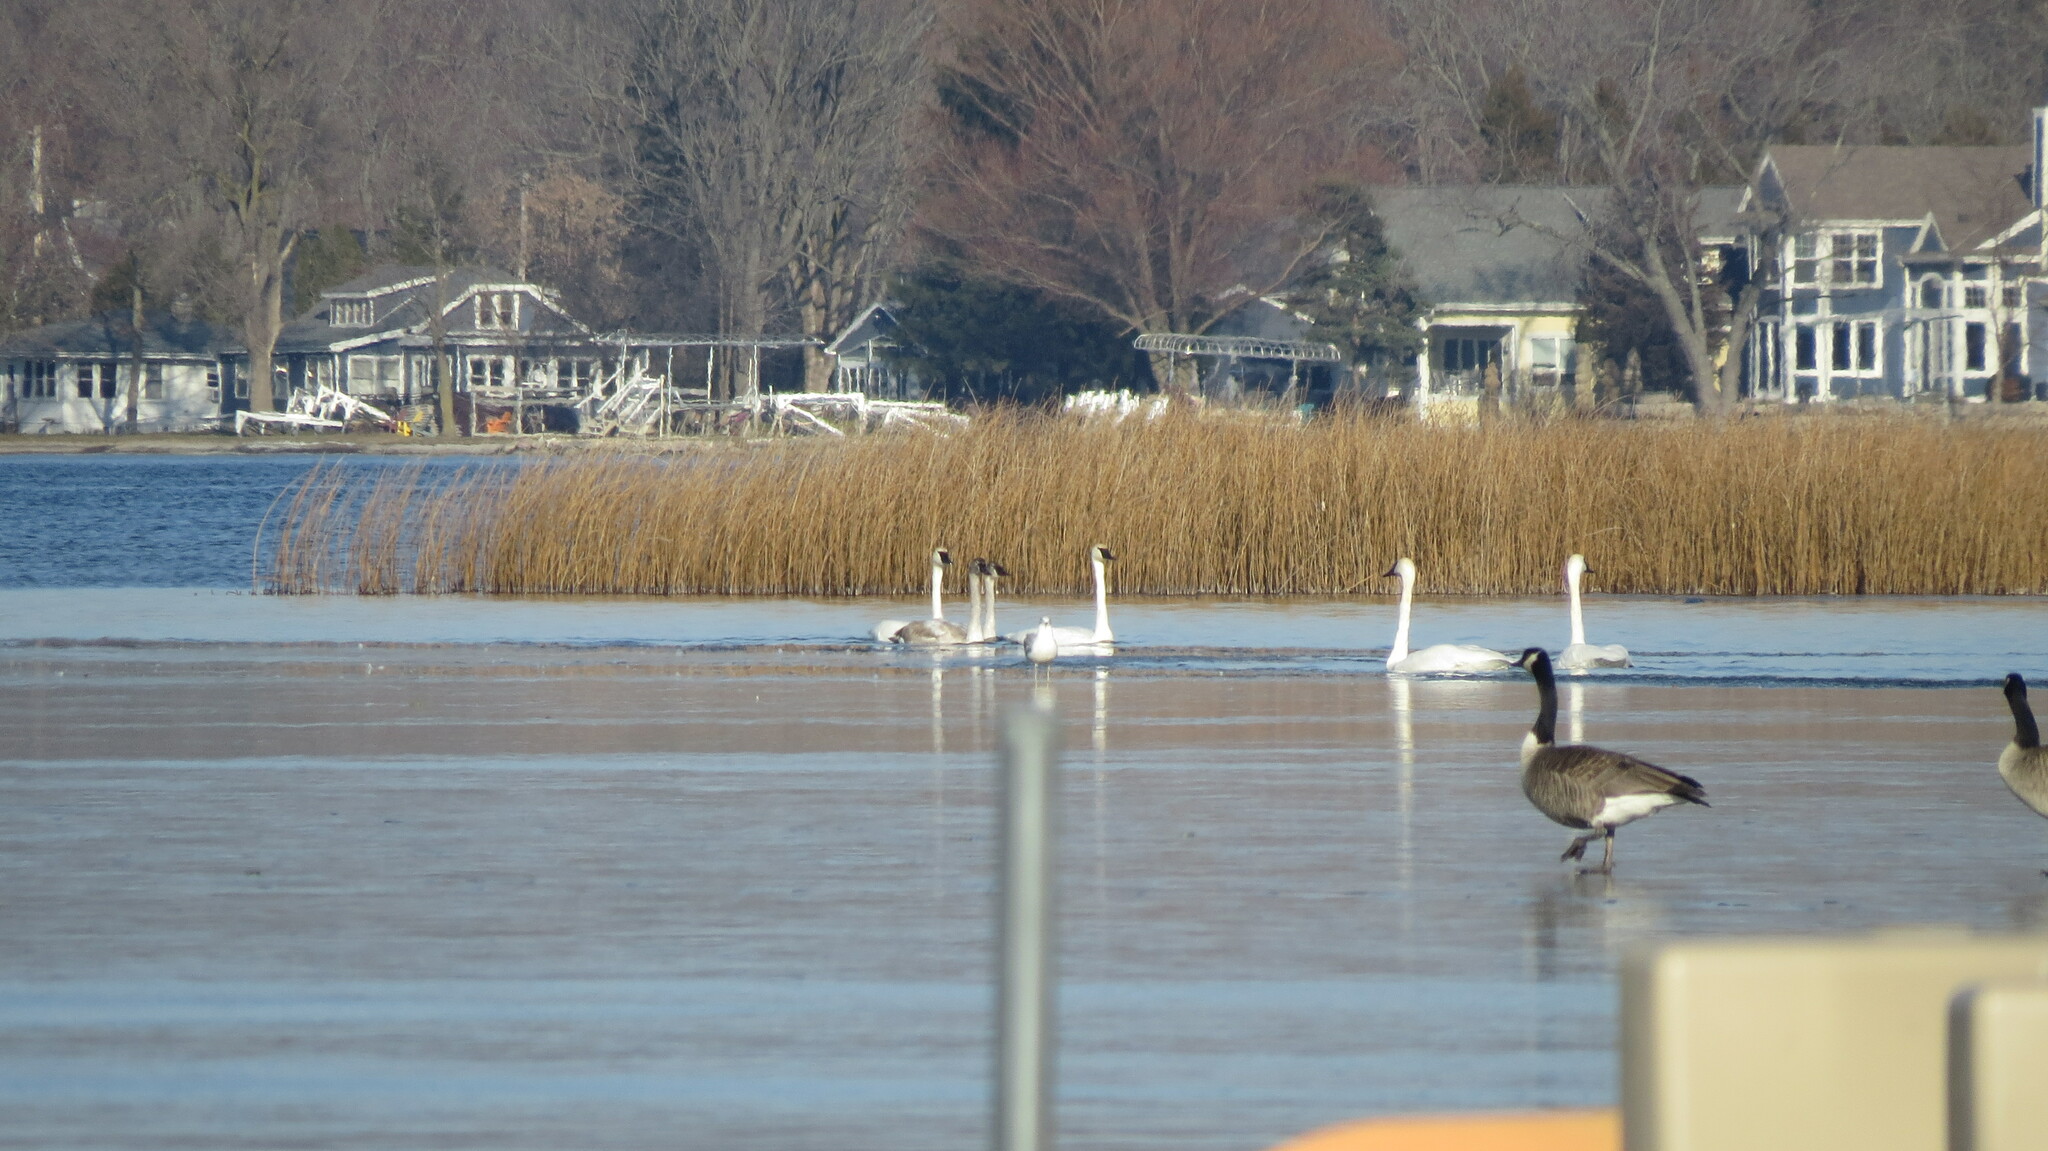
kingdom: Animalia
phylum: Chordata
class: Aves
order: Anseriformes
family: Anatidae
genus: Cygnus
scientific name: Cygnus buccinator
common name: Trumpeter swan
